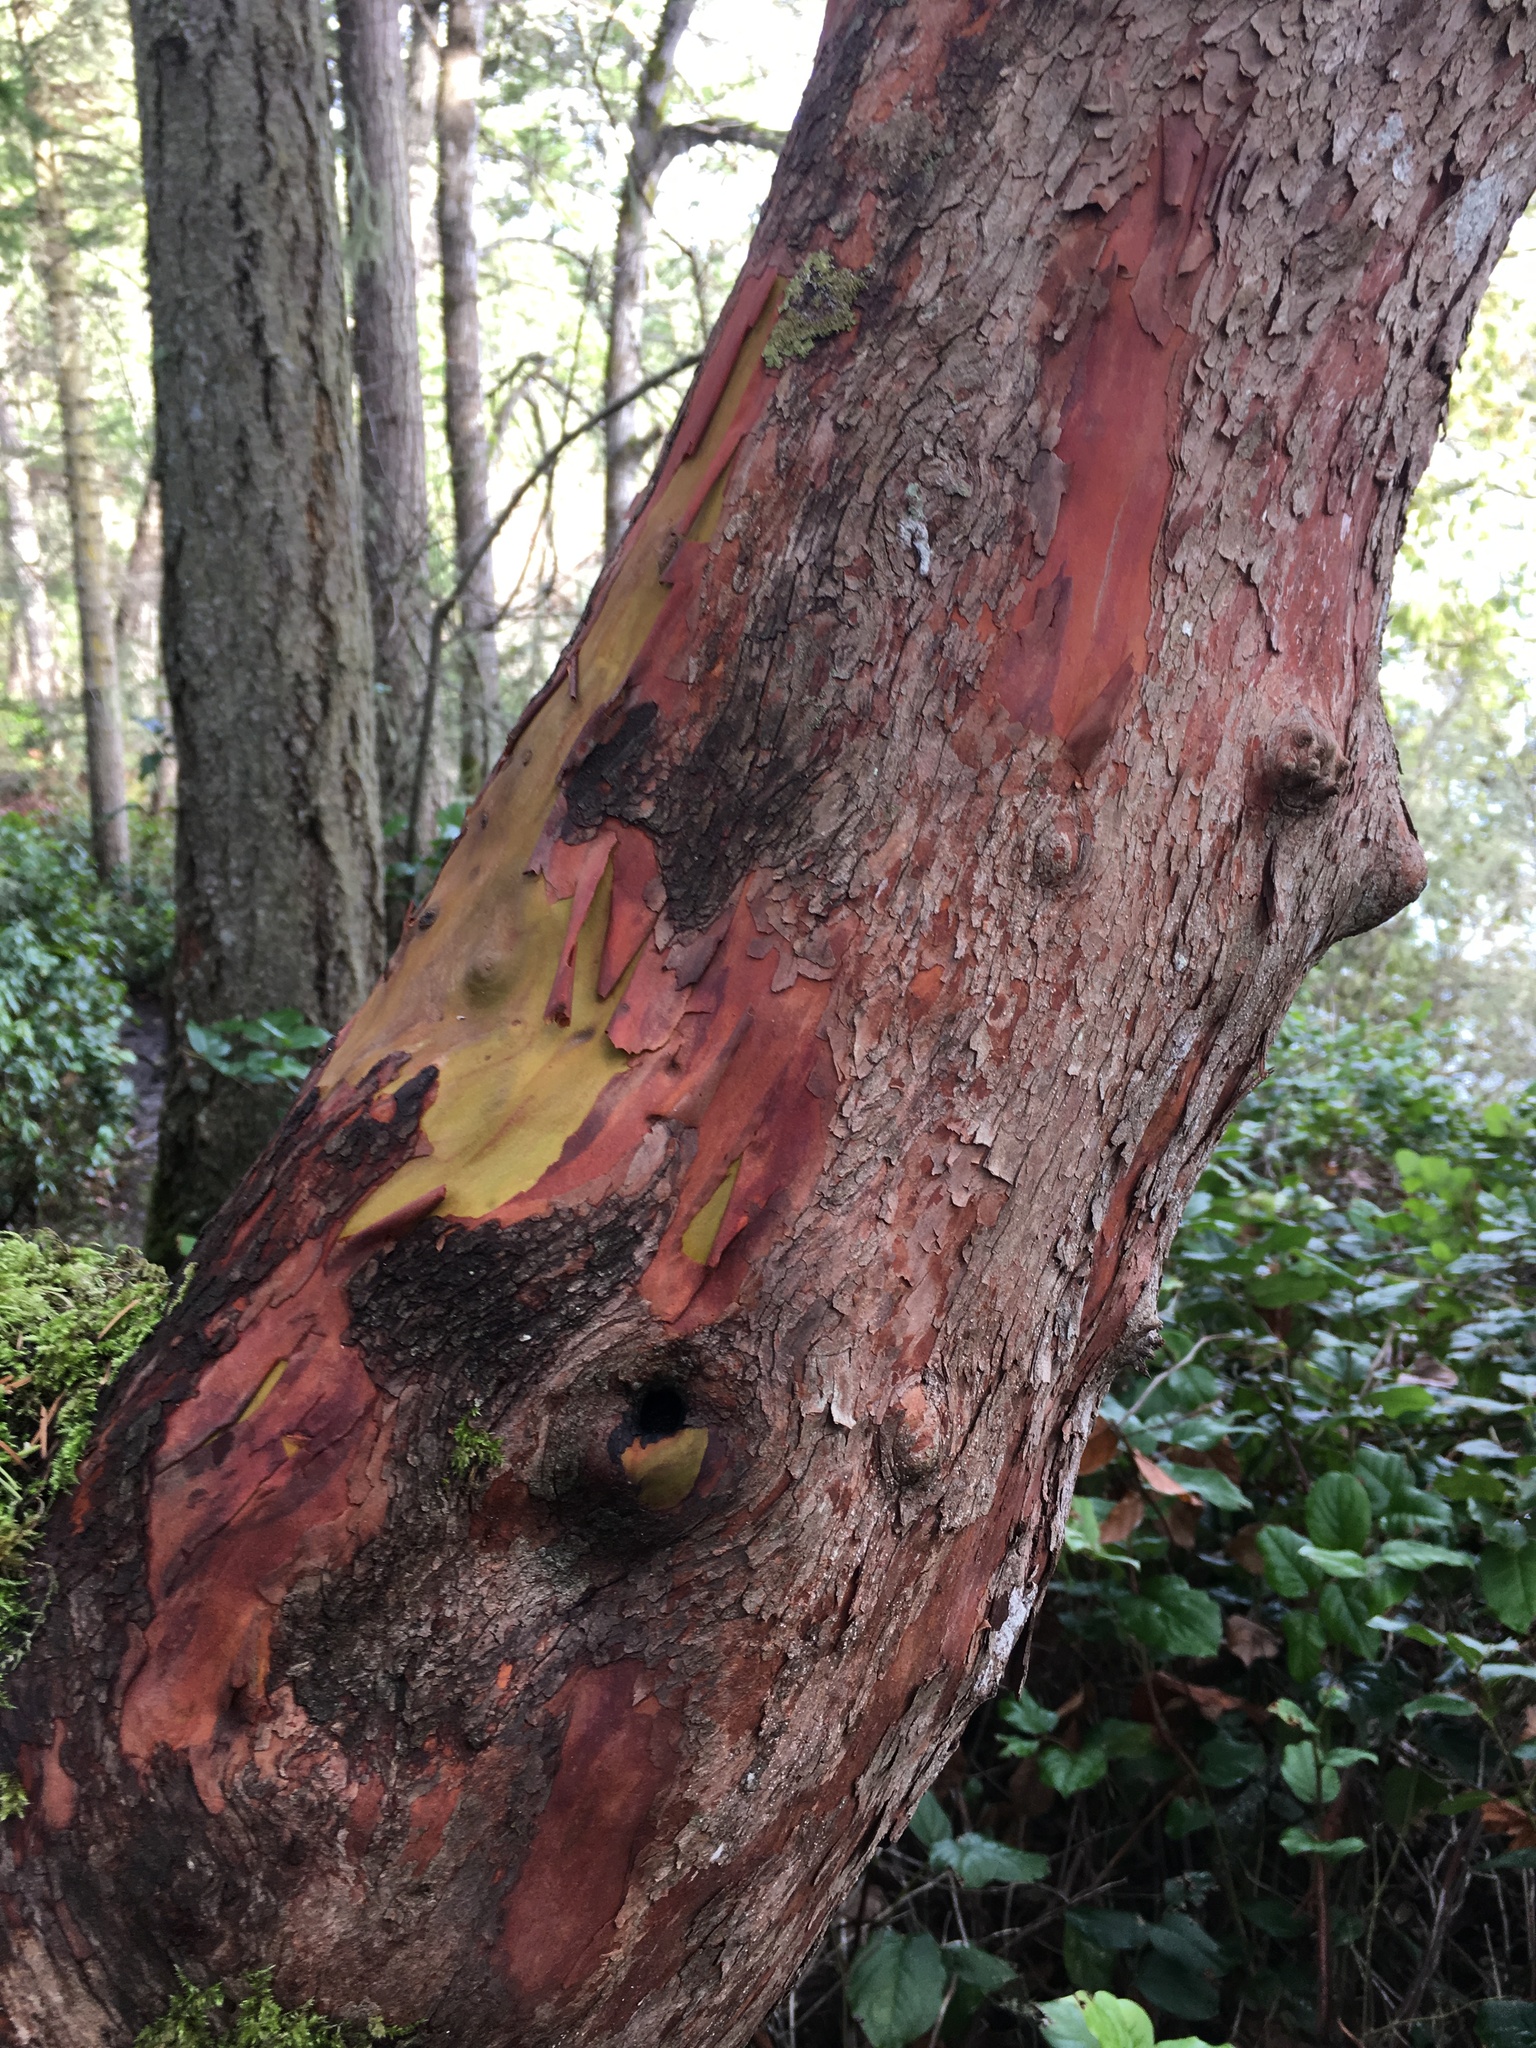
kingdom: Plantae
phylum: Tracheophyta
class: Magnoliopsida
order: Ericales
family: Ericaceae
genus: Arbutus
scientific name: Arbutus menziesii
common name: Pacific madrone
